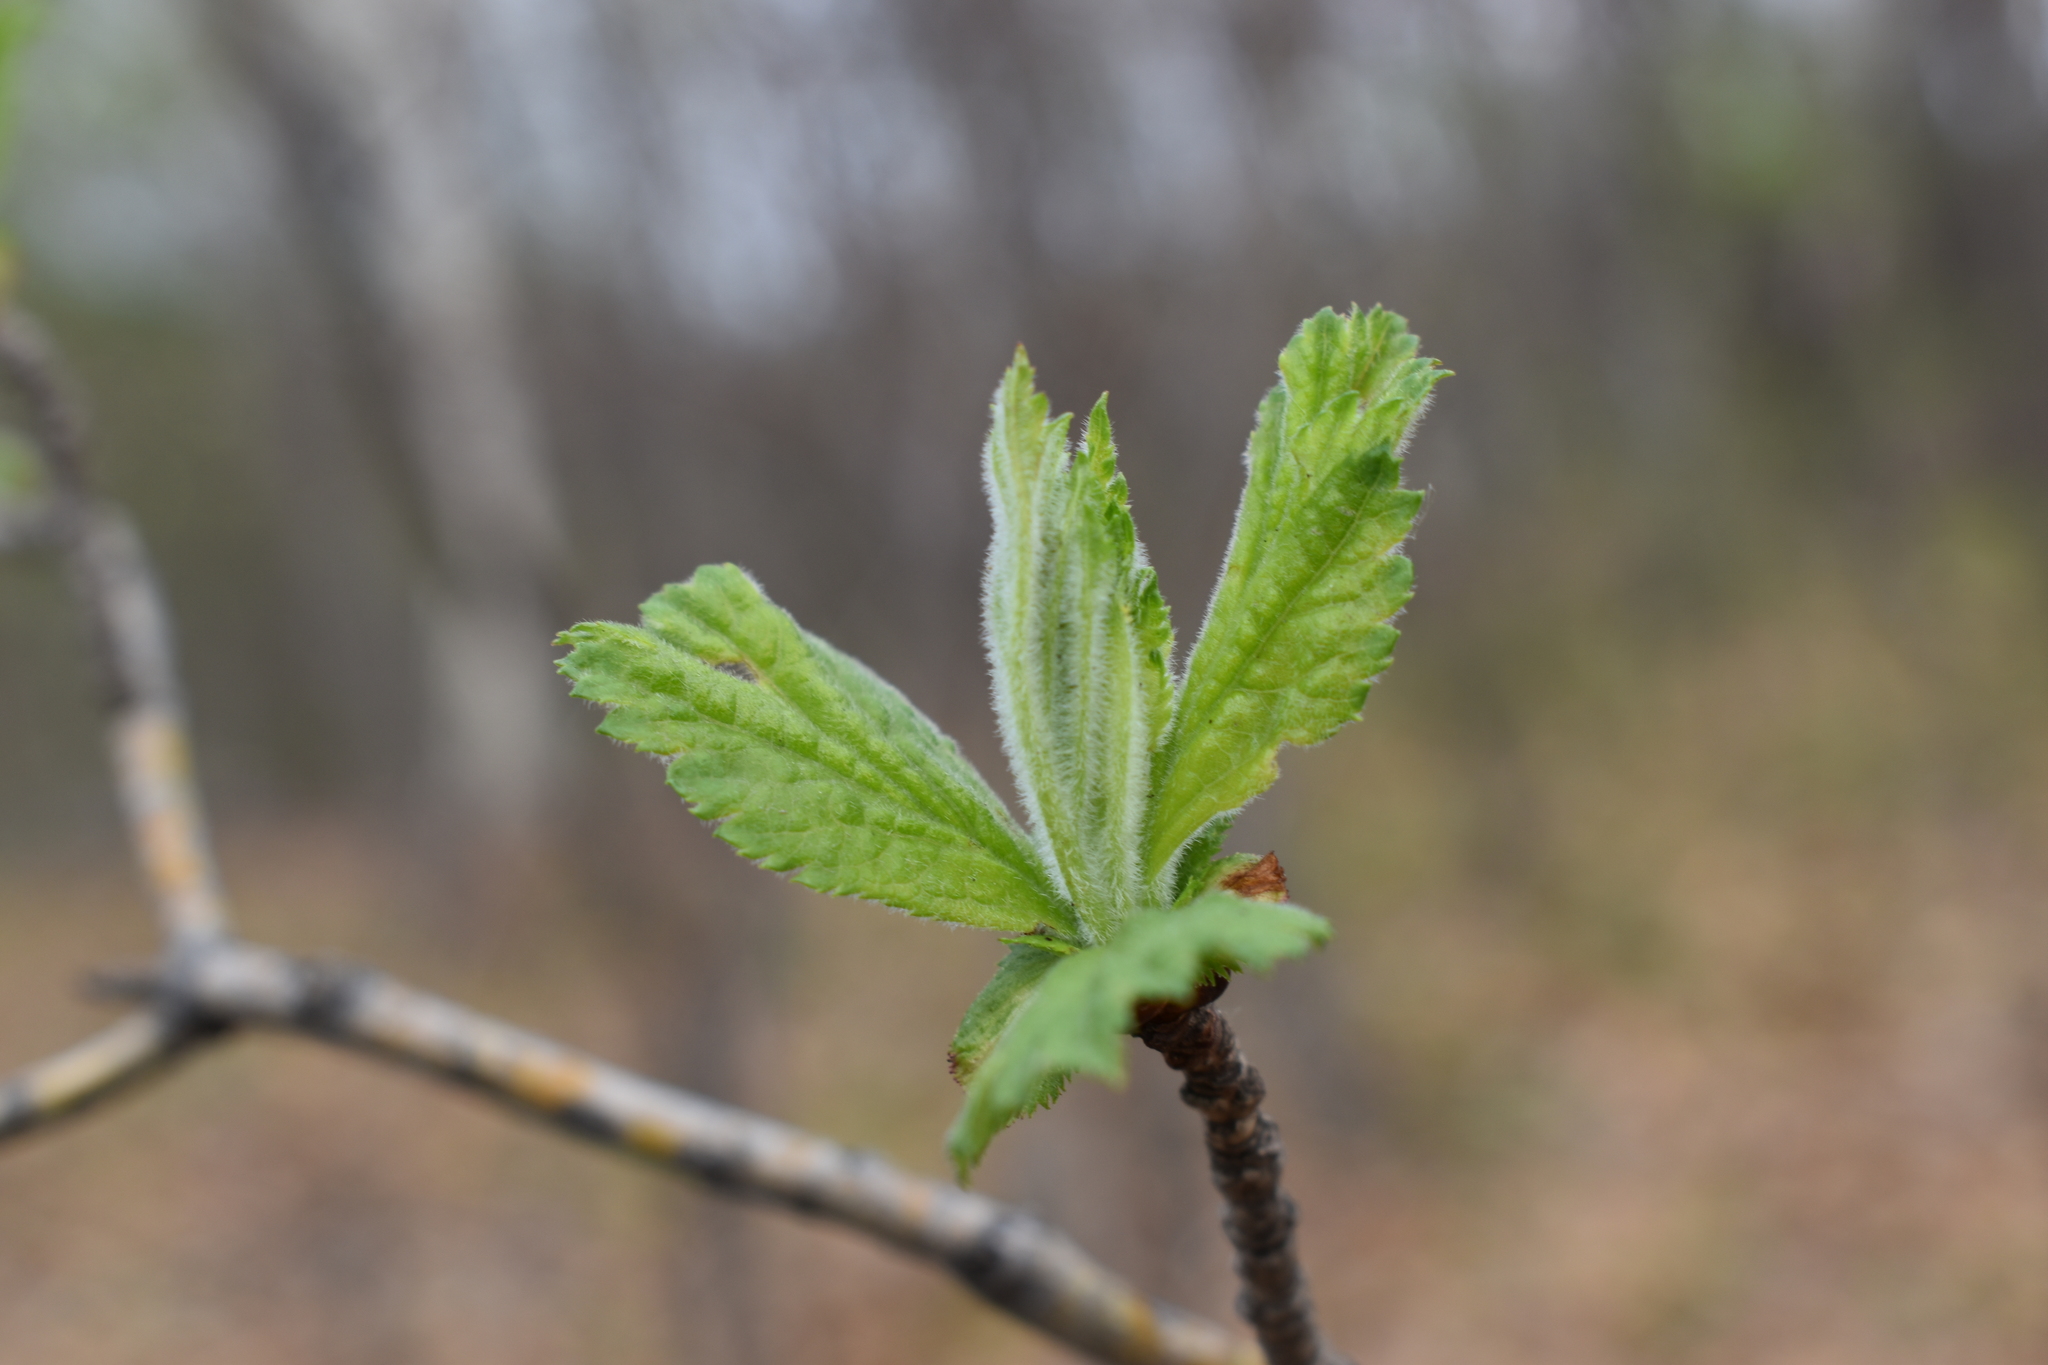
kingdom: Plantae
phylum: Tracheophyta
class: Magnoliopsida
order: Rosales
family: Rosaceae
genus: Crataegus
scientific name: Crataegus maximowiczii
